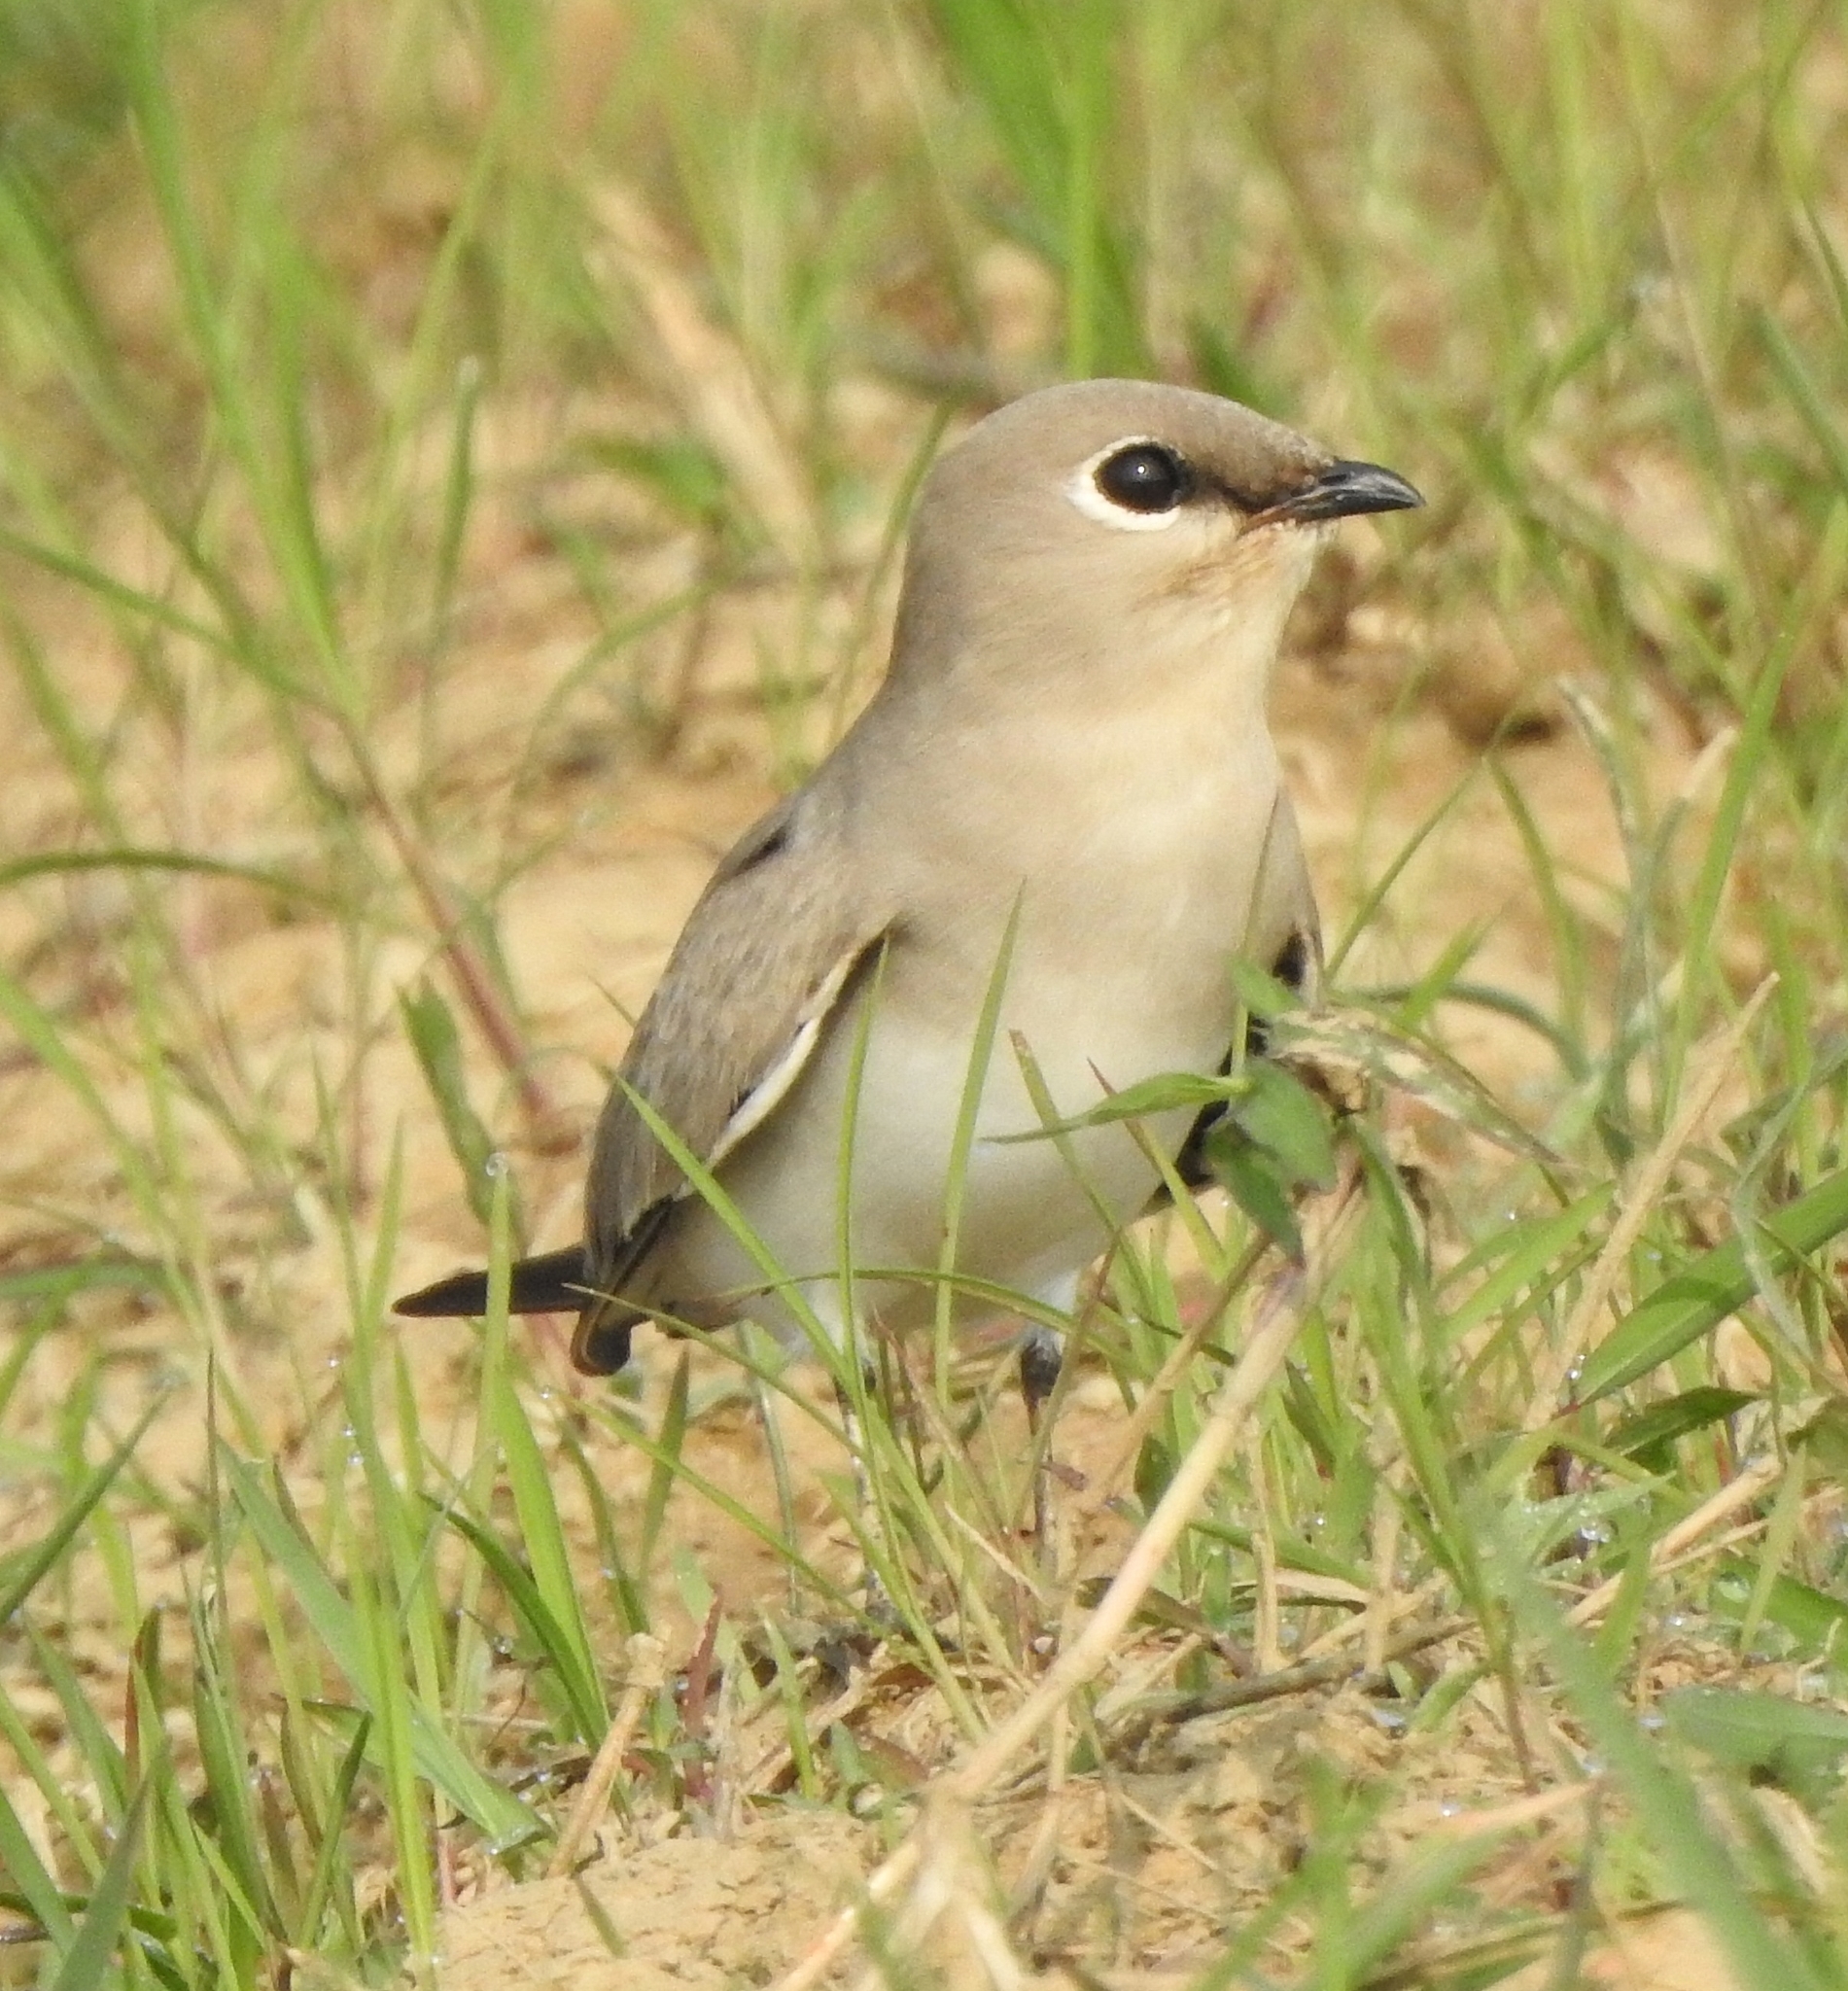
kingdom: Animalia
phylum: Chordata
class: Aves
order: Charadriiformes
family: Glareolidae
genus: Glareola
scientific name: Glareola lactea
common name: Small pratincole
